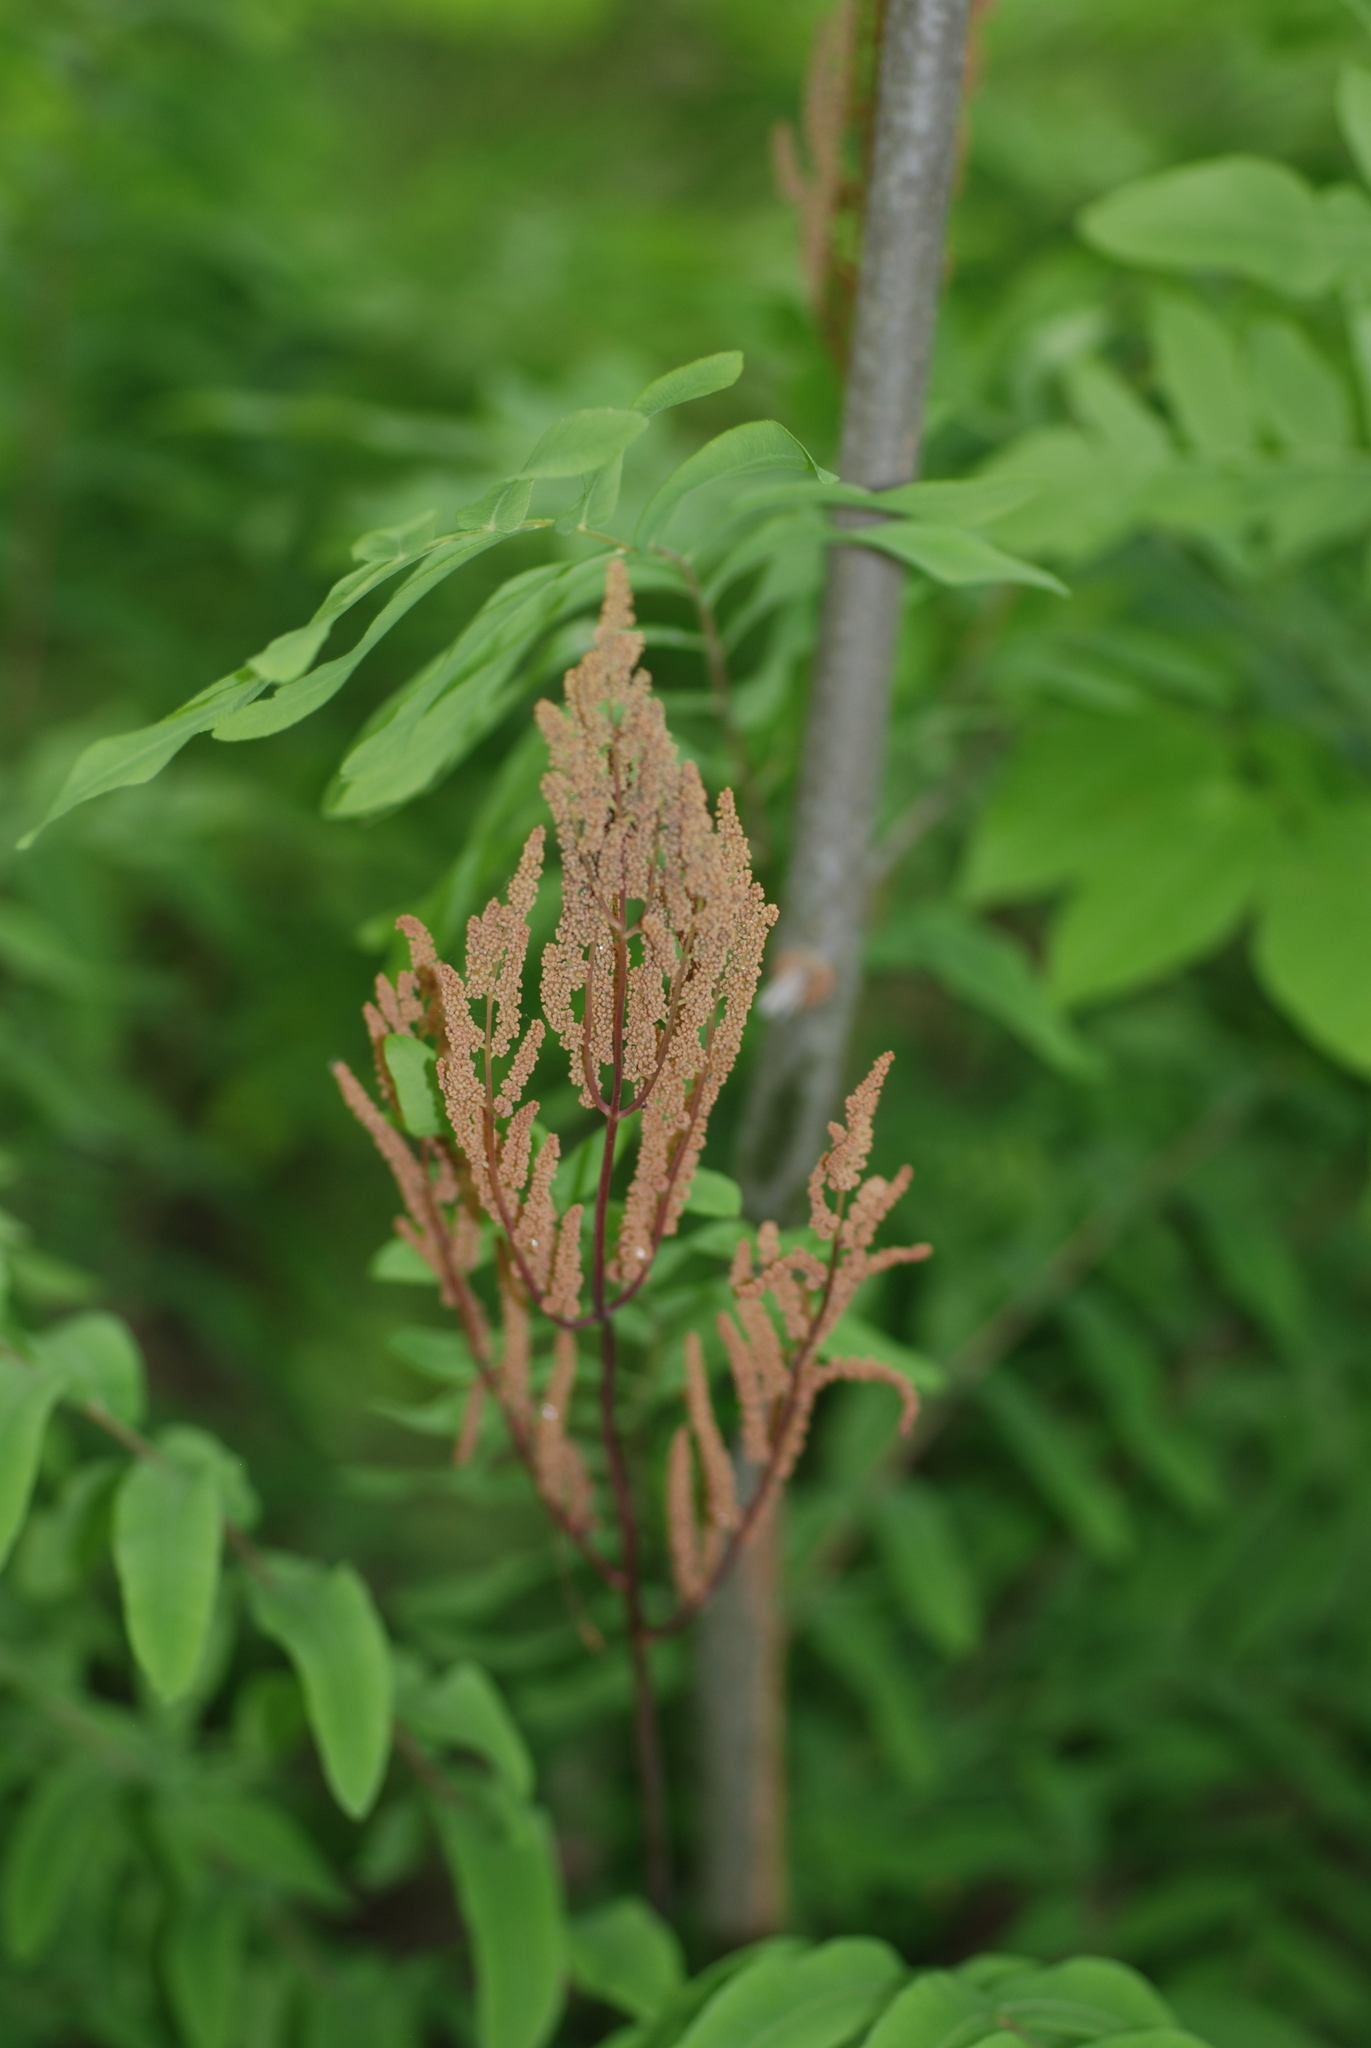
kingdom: Plantae
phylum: Tracheophyta
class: Polypodiopsida
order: Osmundales
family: Osmundaceae
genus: Osmunda
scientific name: Osmunda spectabilis
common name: American royal fern
